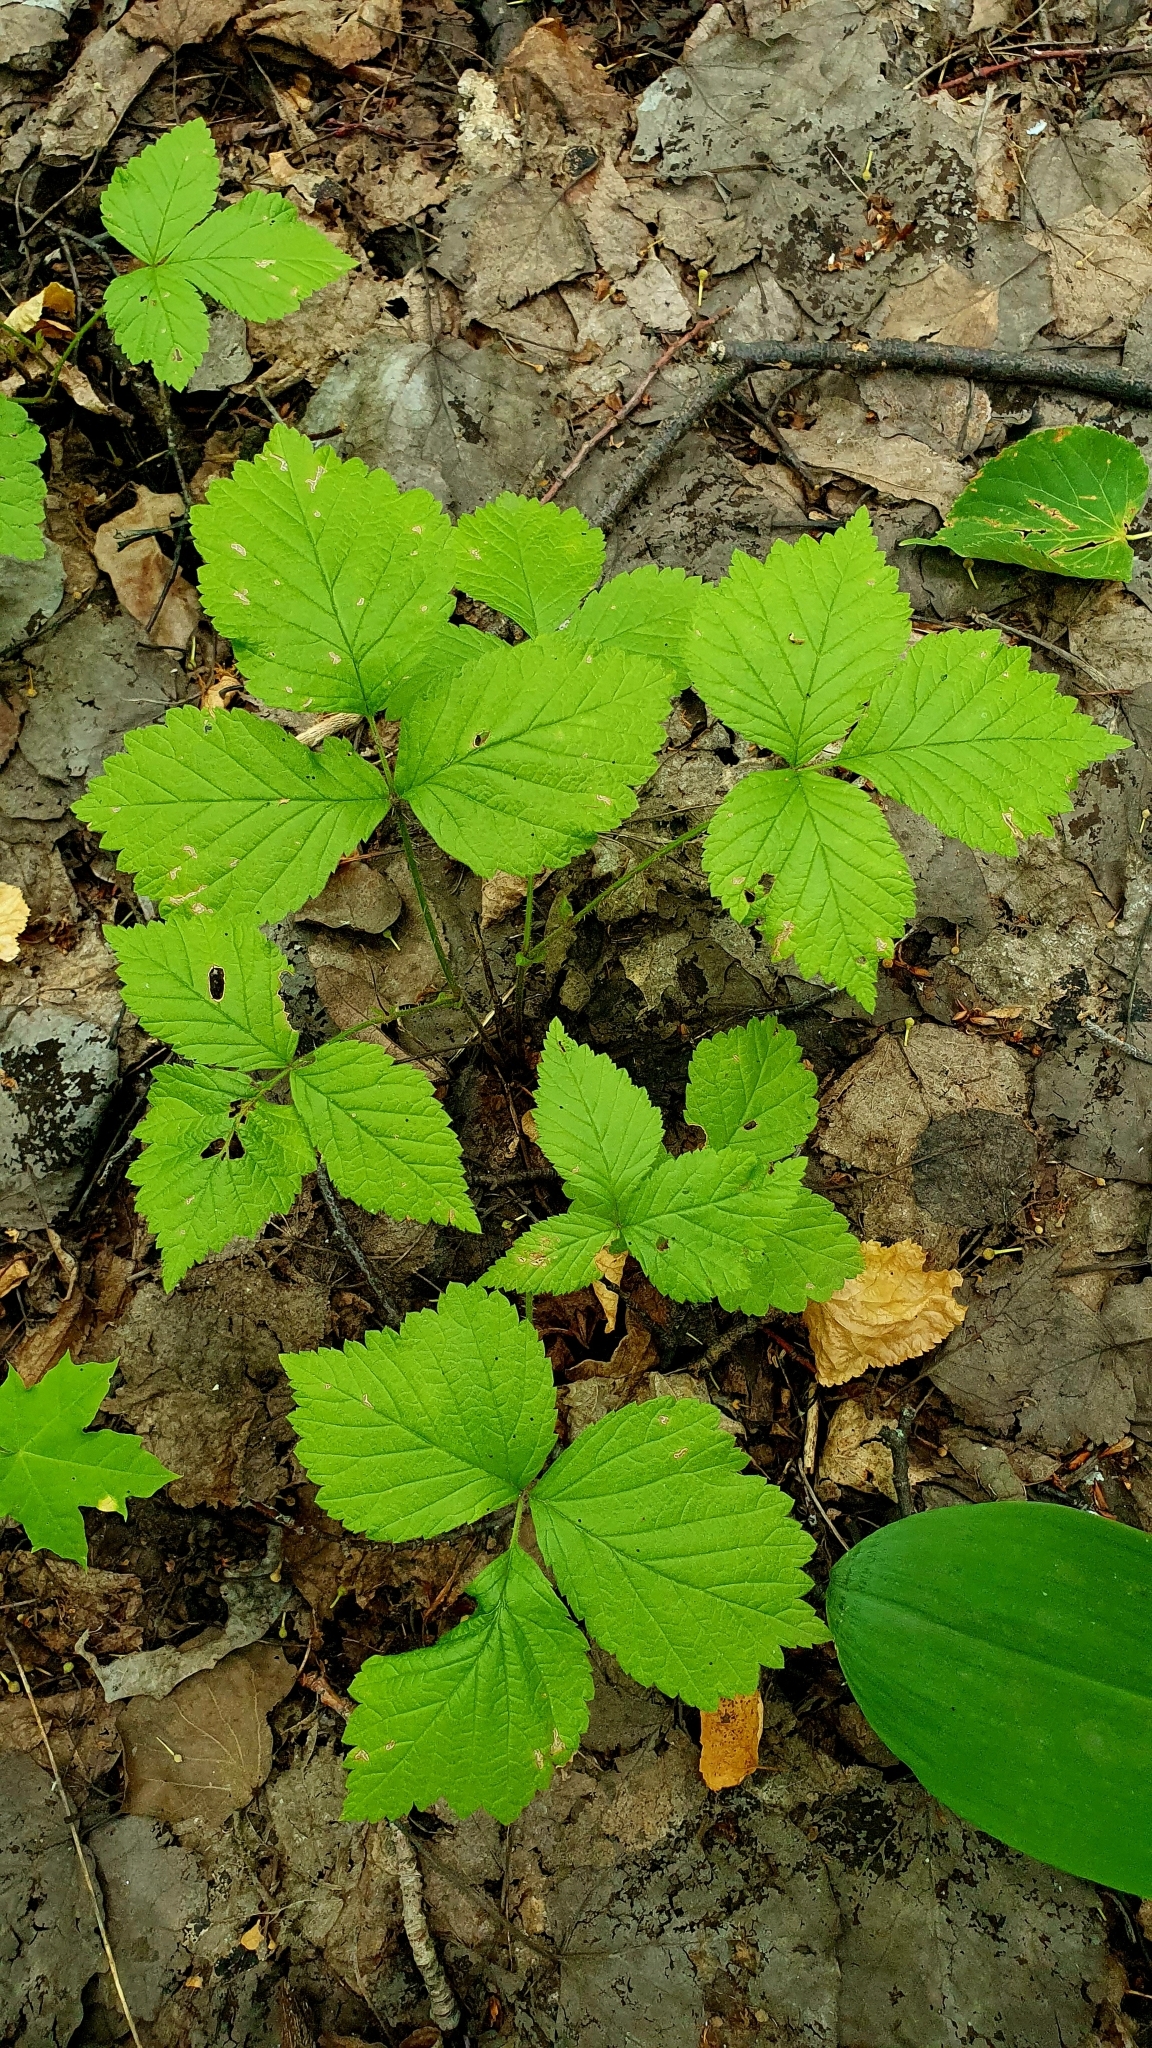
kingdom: Plantae
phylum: Tracheophyta
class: Magnoliopsida
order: Rosales
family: Rosaceae
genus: Rubus
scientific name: Rubus saxatilis
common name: Stone bramble
